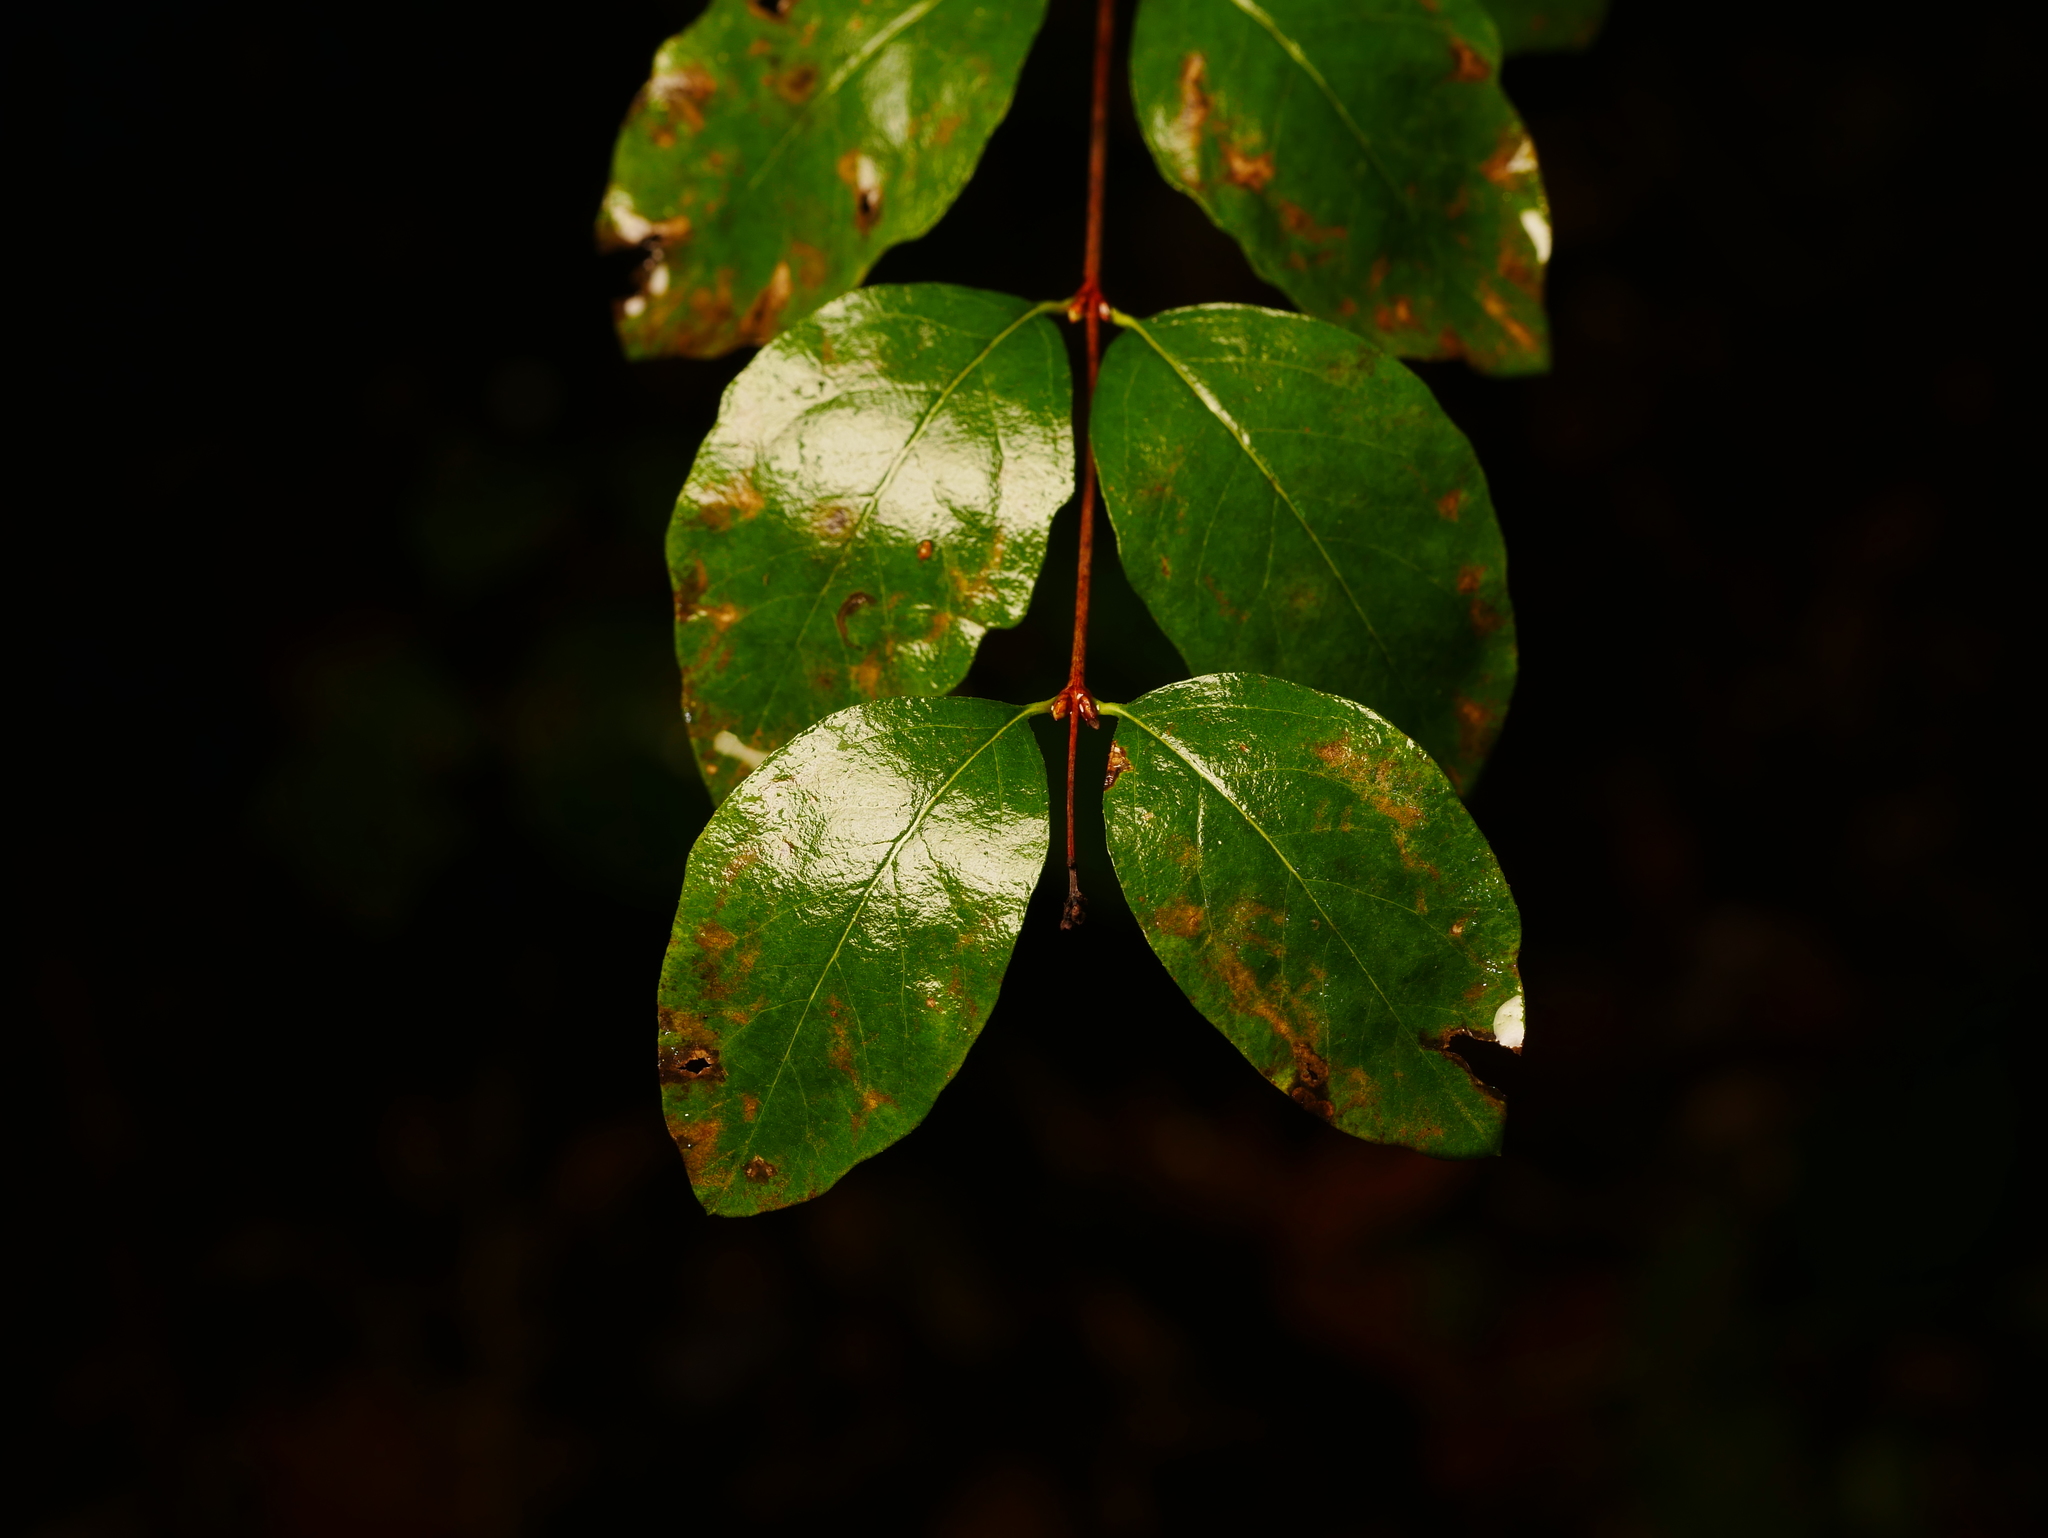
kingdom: Plantae
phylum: Tracheophyta
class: Magnoliopsida
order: Dipsacales
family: Caprifoliaceae
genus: Symphoricarpos
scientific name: Symphoricarpos albus
